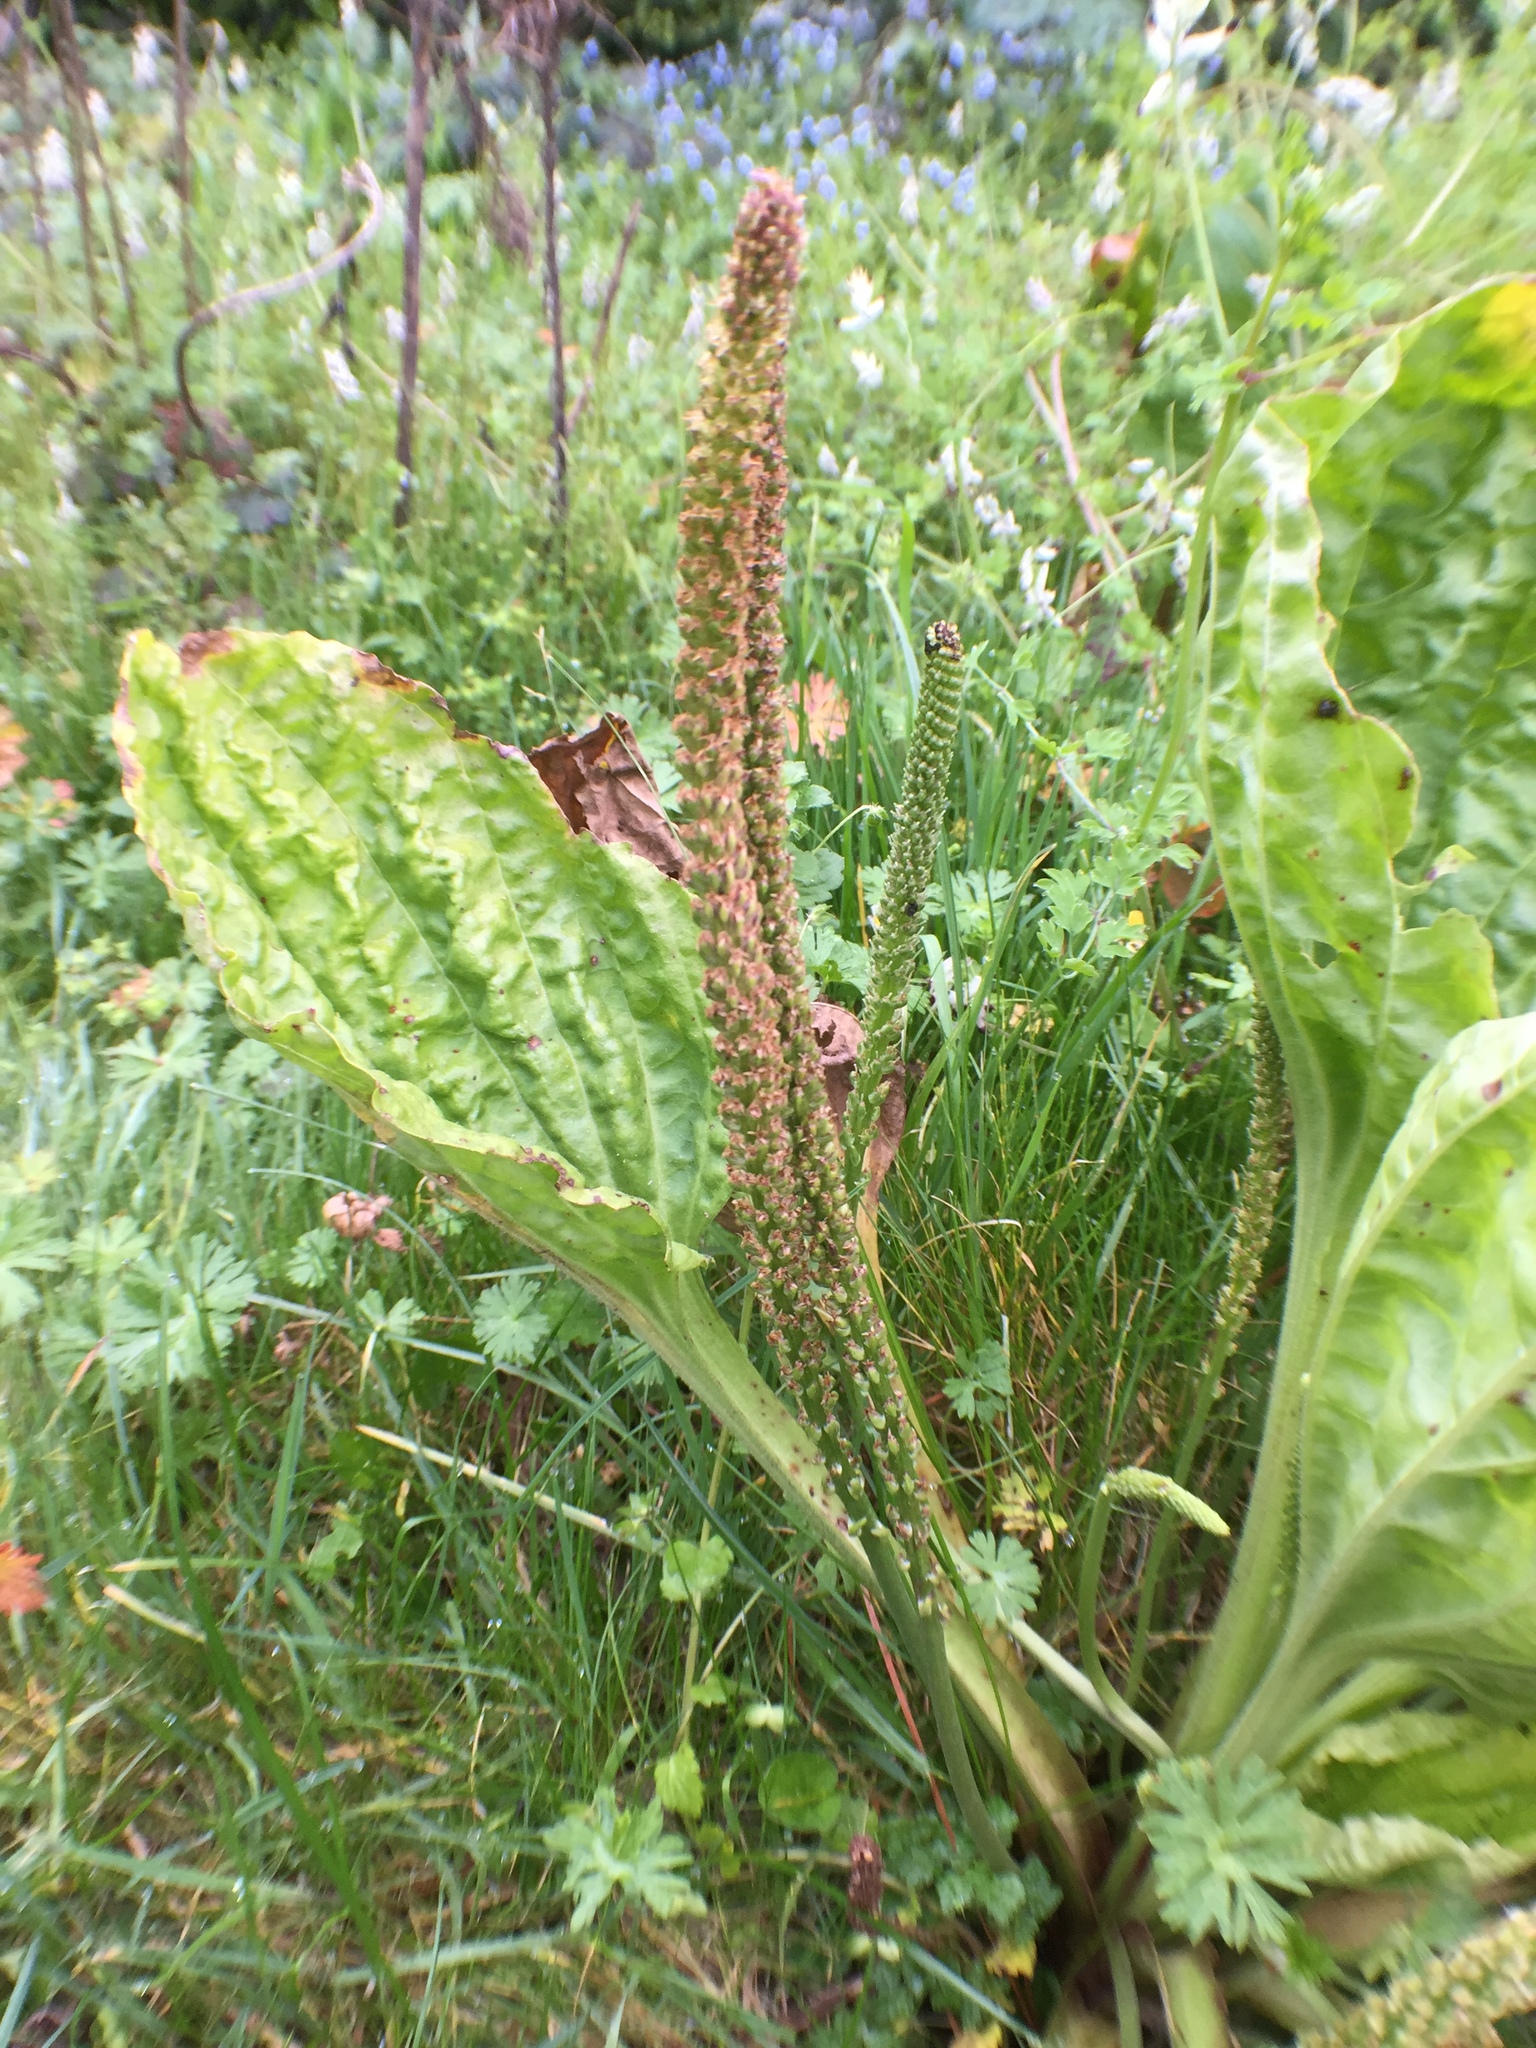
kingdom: Plantae
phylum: Tracheophyta
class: Magnoliopsida
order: Lamiales
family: Plantaginaceae
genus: Plantago
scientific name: Plantago major
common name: Common plantain
